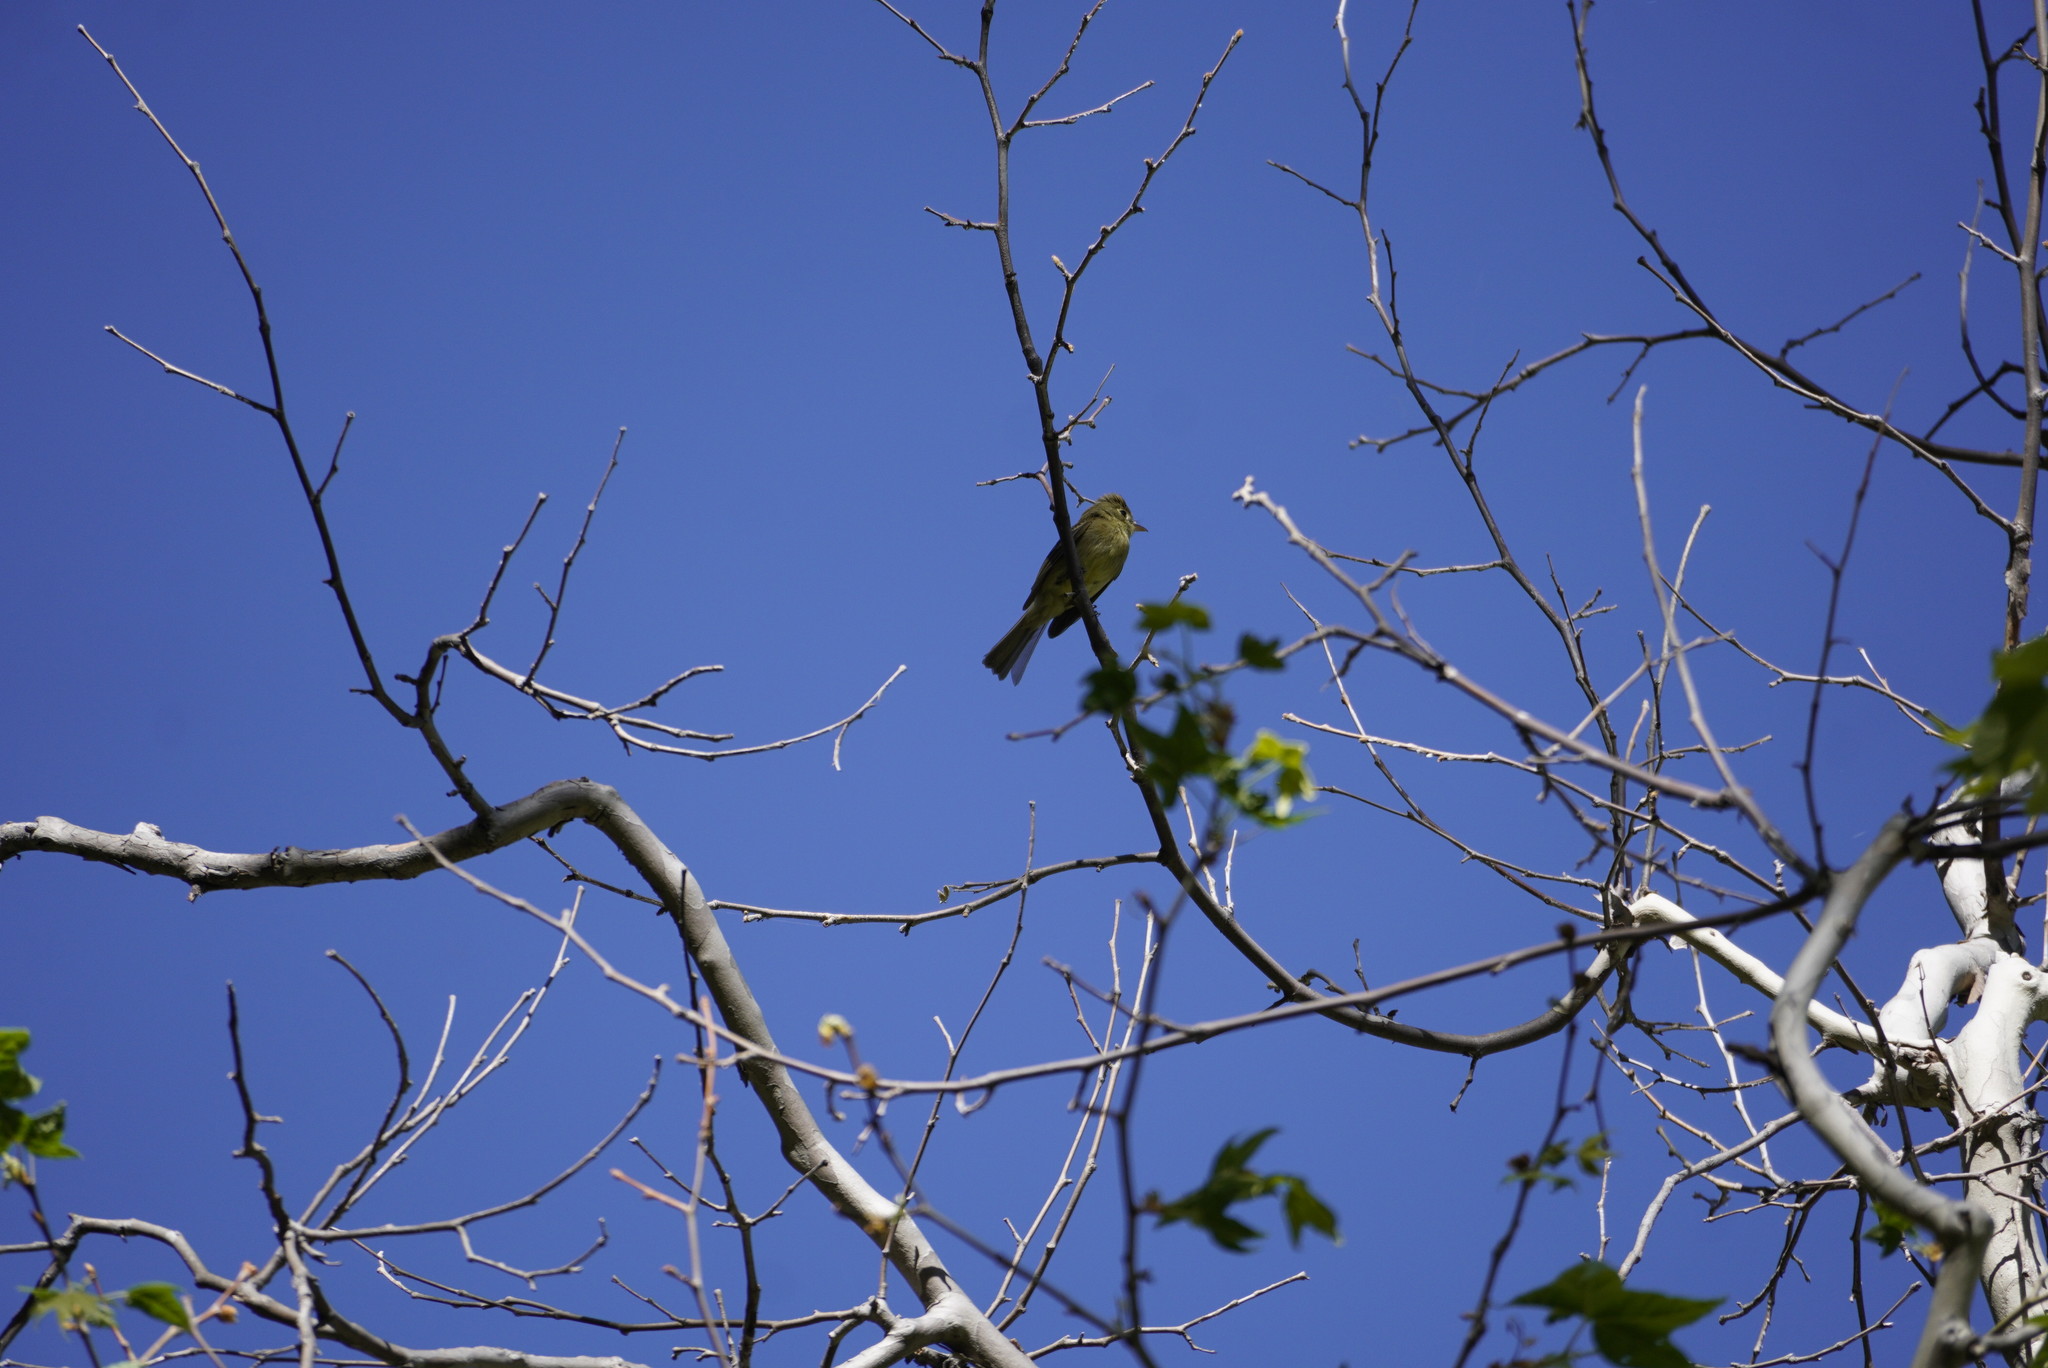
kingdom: Animalia
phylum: Chordata
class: Aves
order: Passeriformes
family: Tyrannidae
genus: Empidonax
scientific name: Empidonax difficilis
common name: Pacific-slope flycatcher
